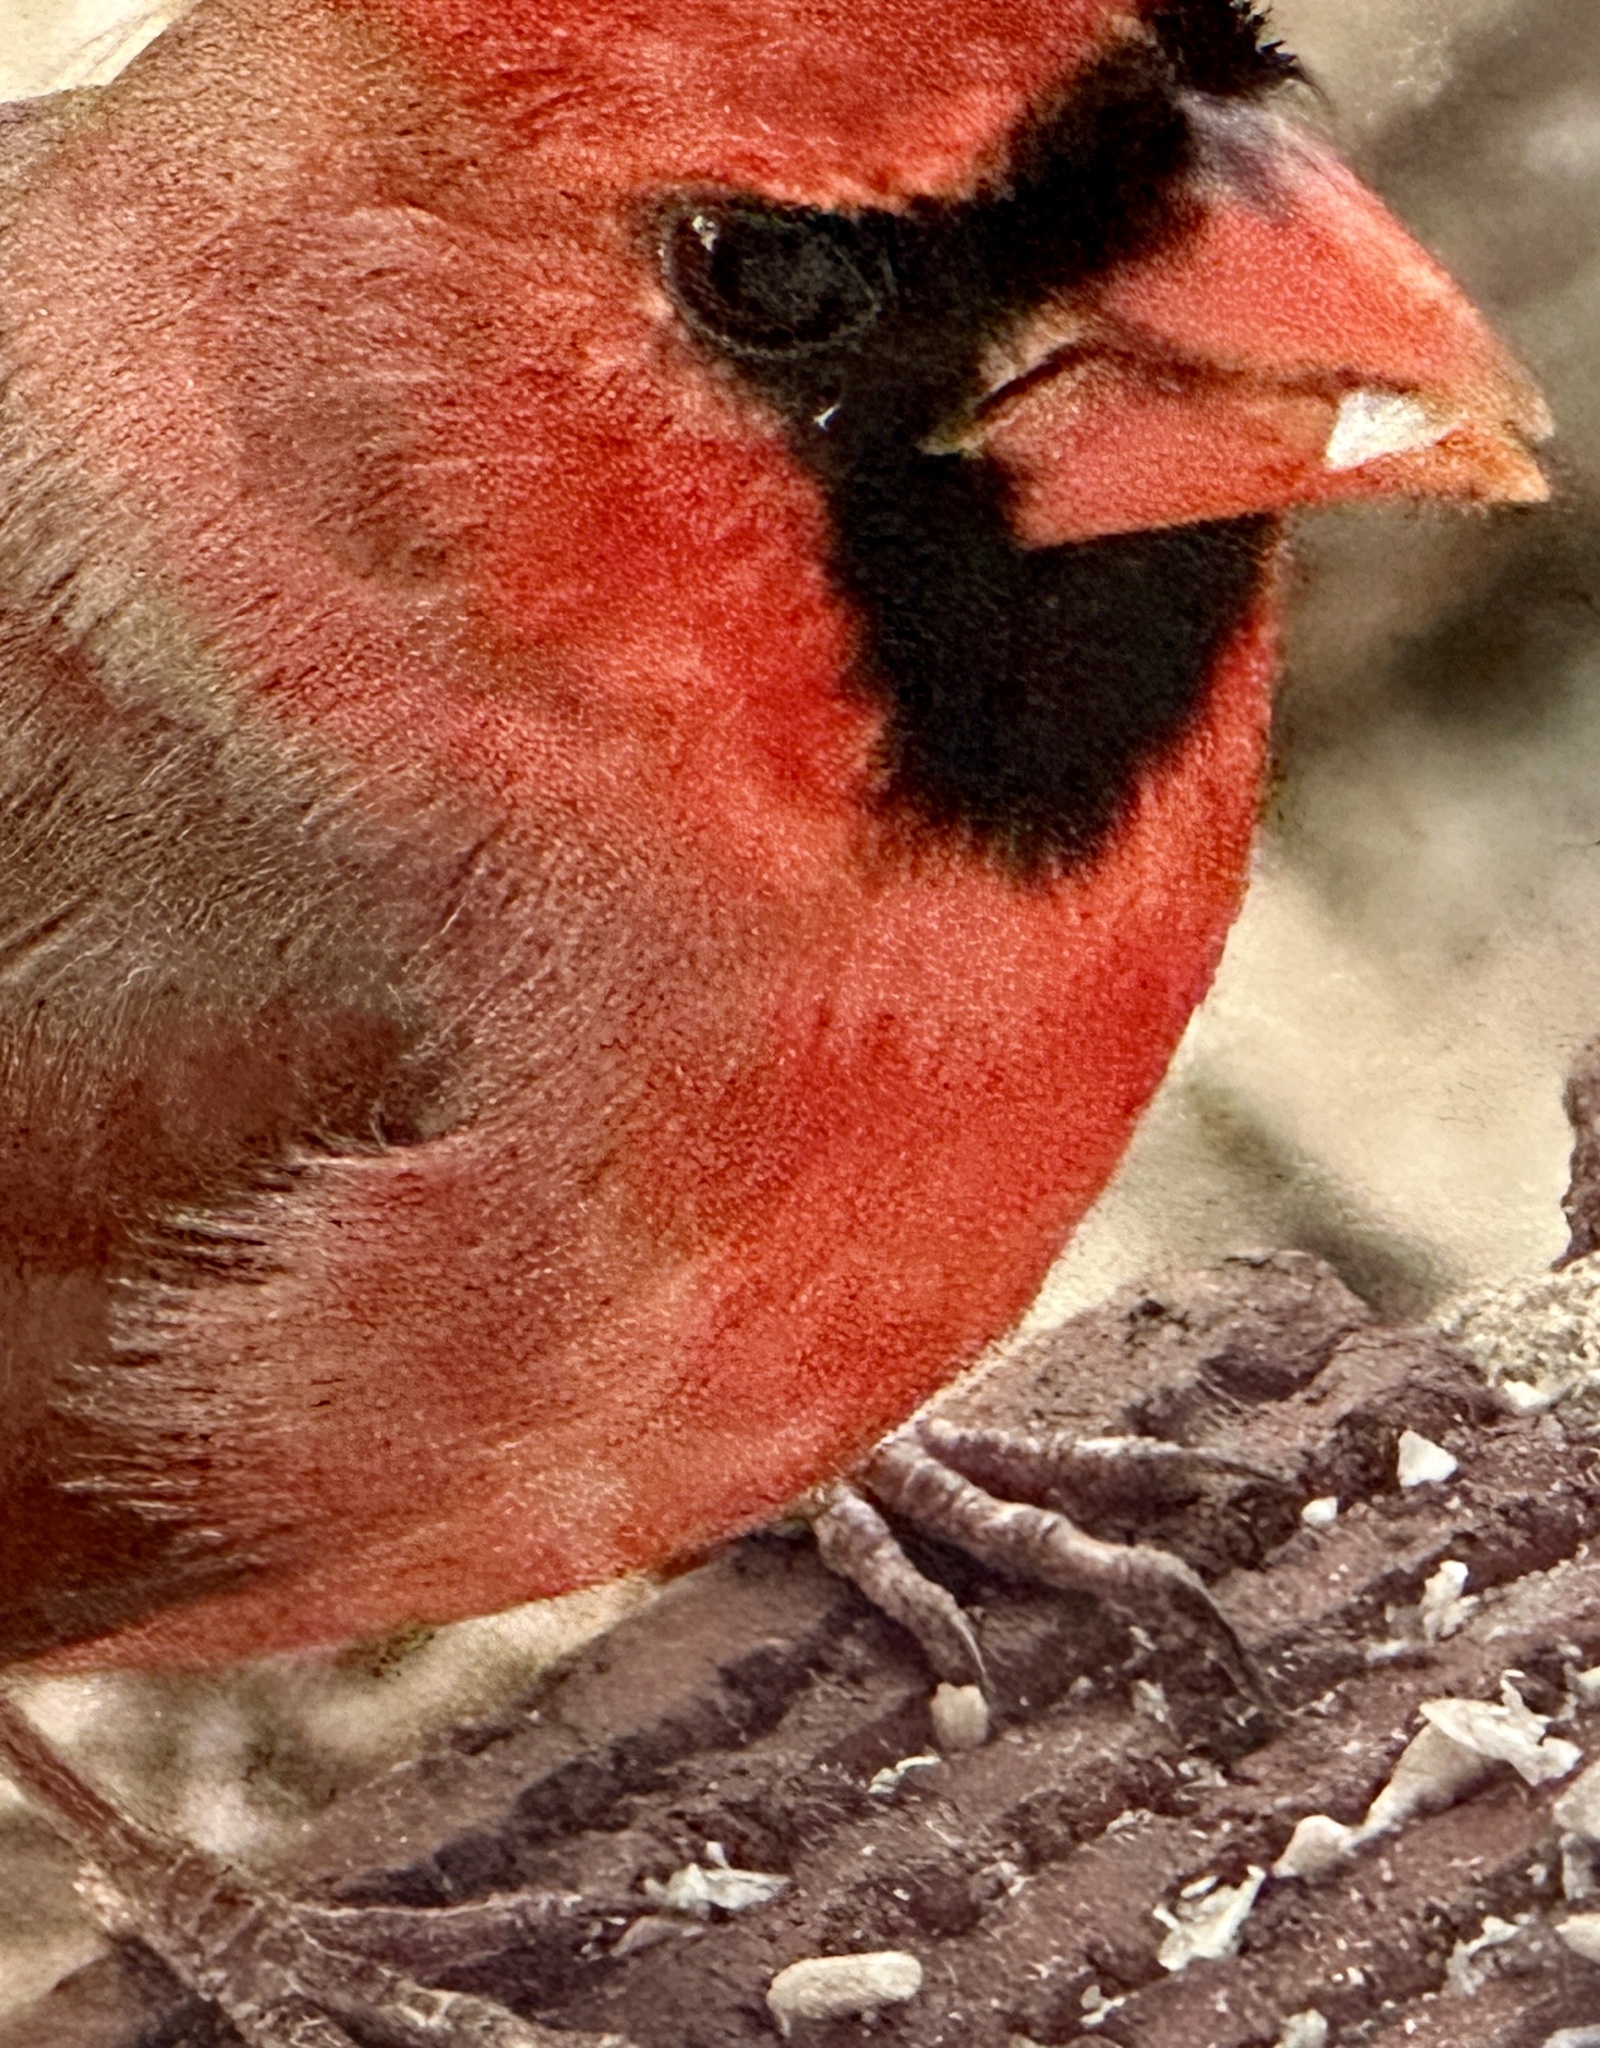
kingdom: Animalia
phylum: Chordata
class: Aves
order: Passeriformes
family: Cardinalidae
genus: Cardinalis
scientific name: Cardinalis cardinalis
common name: Northern cardinal
